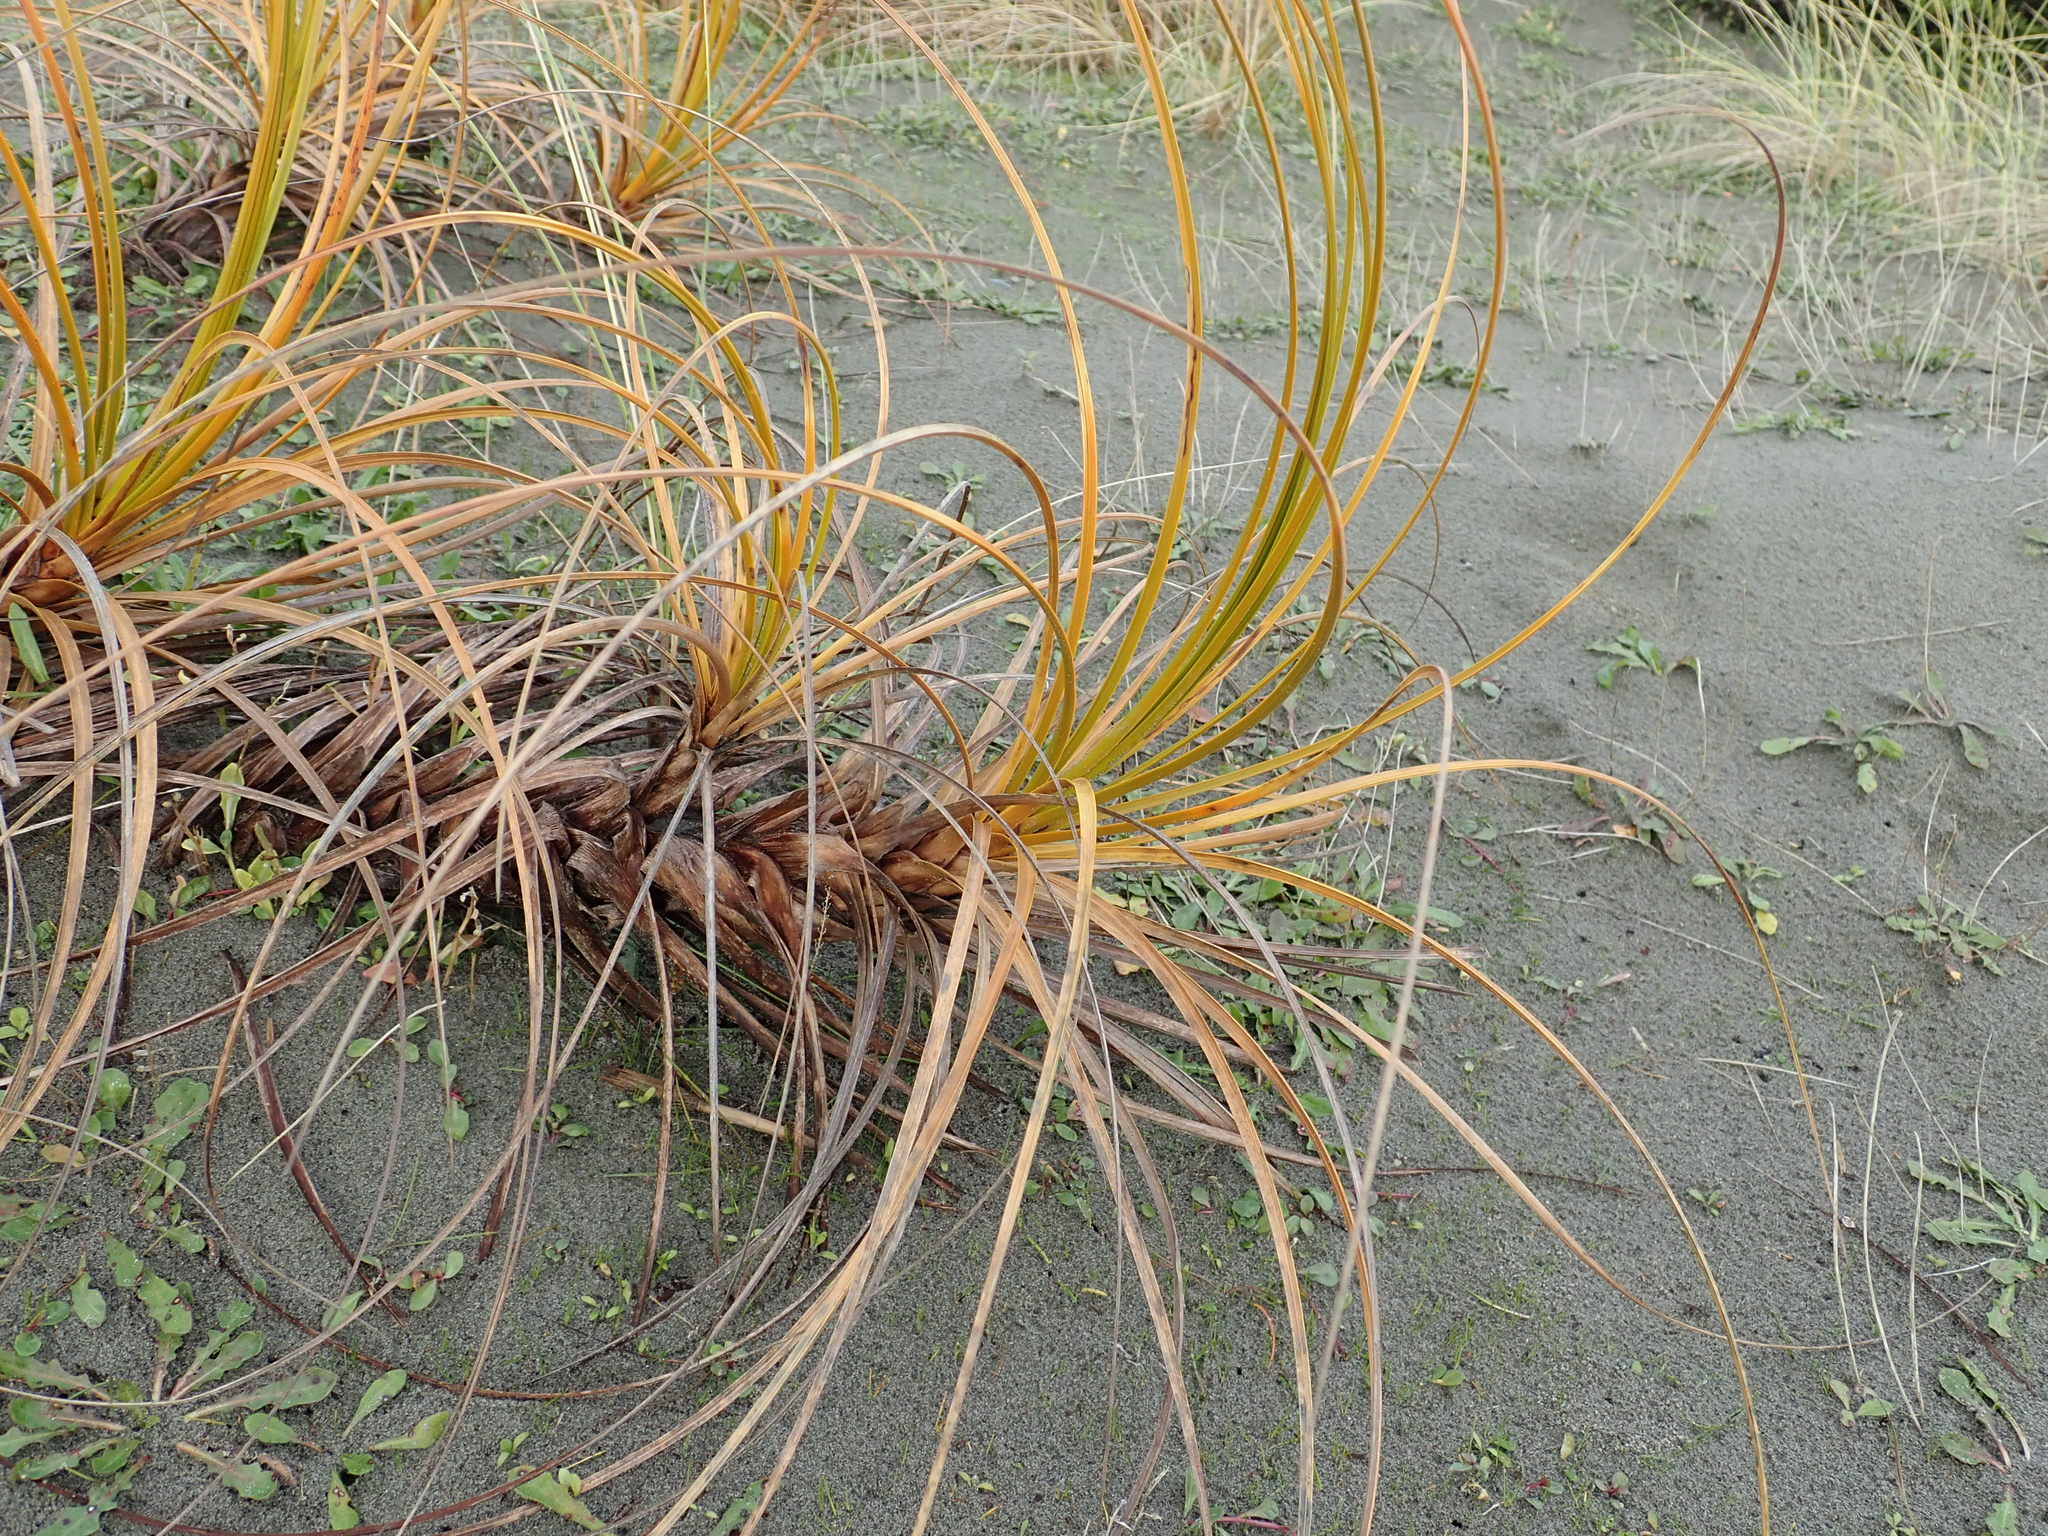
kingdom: Plantae
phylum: Tracheophyta
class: Liliopsida
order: Poales
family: Cyperaceae
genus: Ficinia
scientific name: Ficinia spiralis
